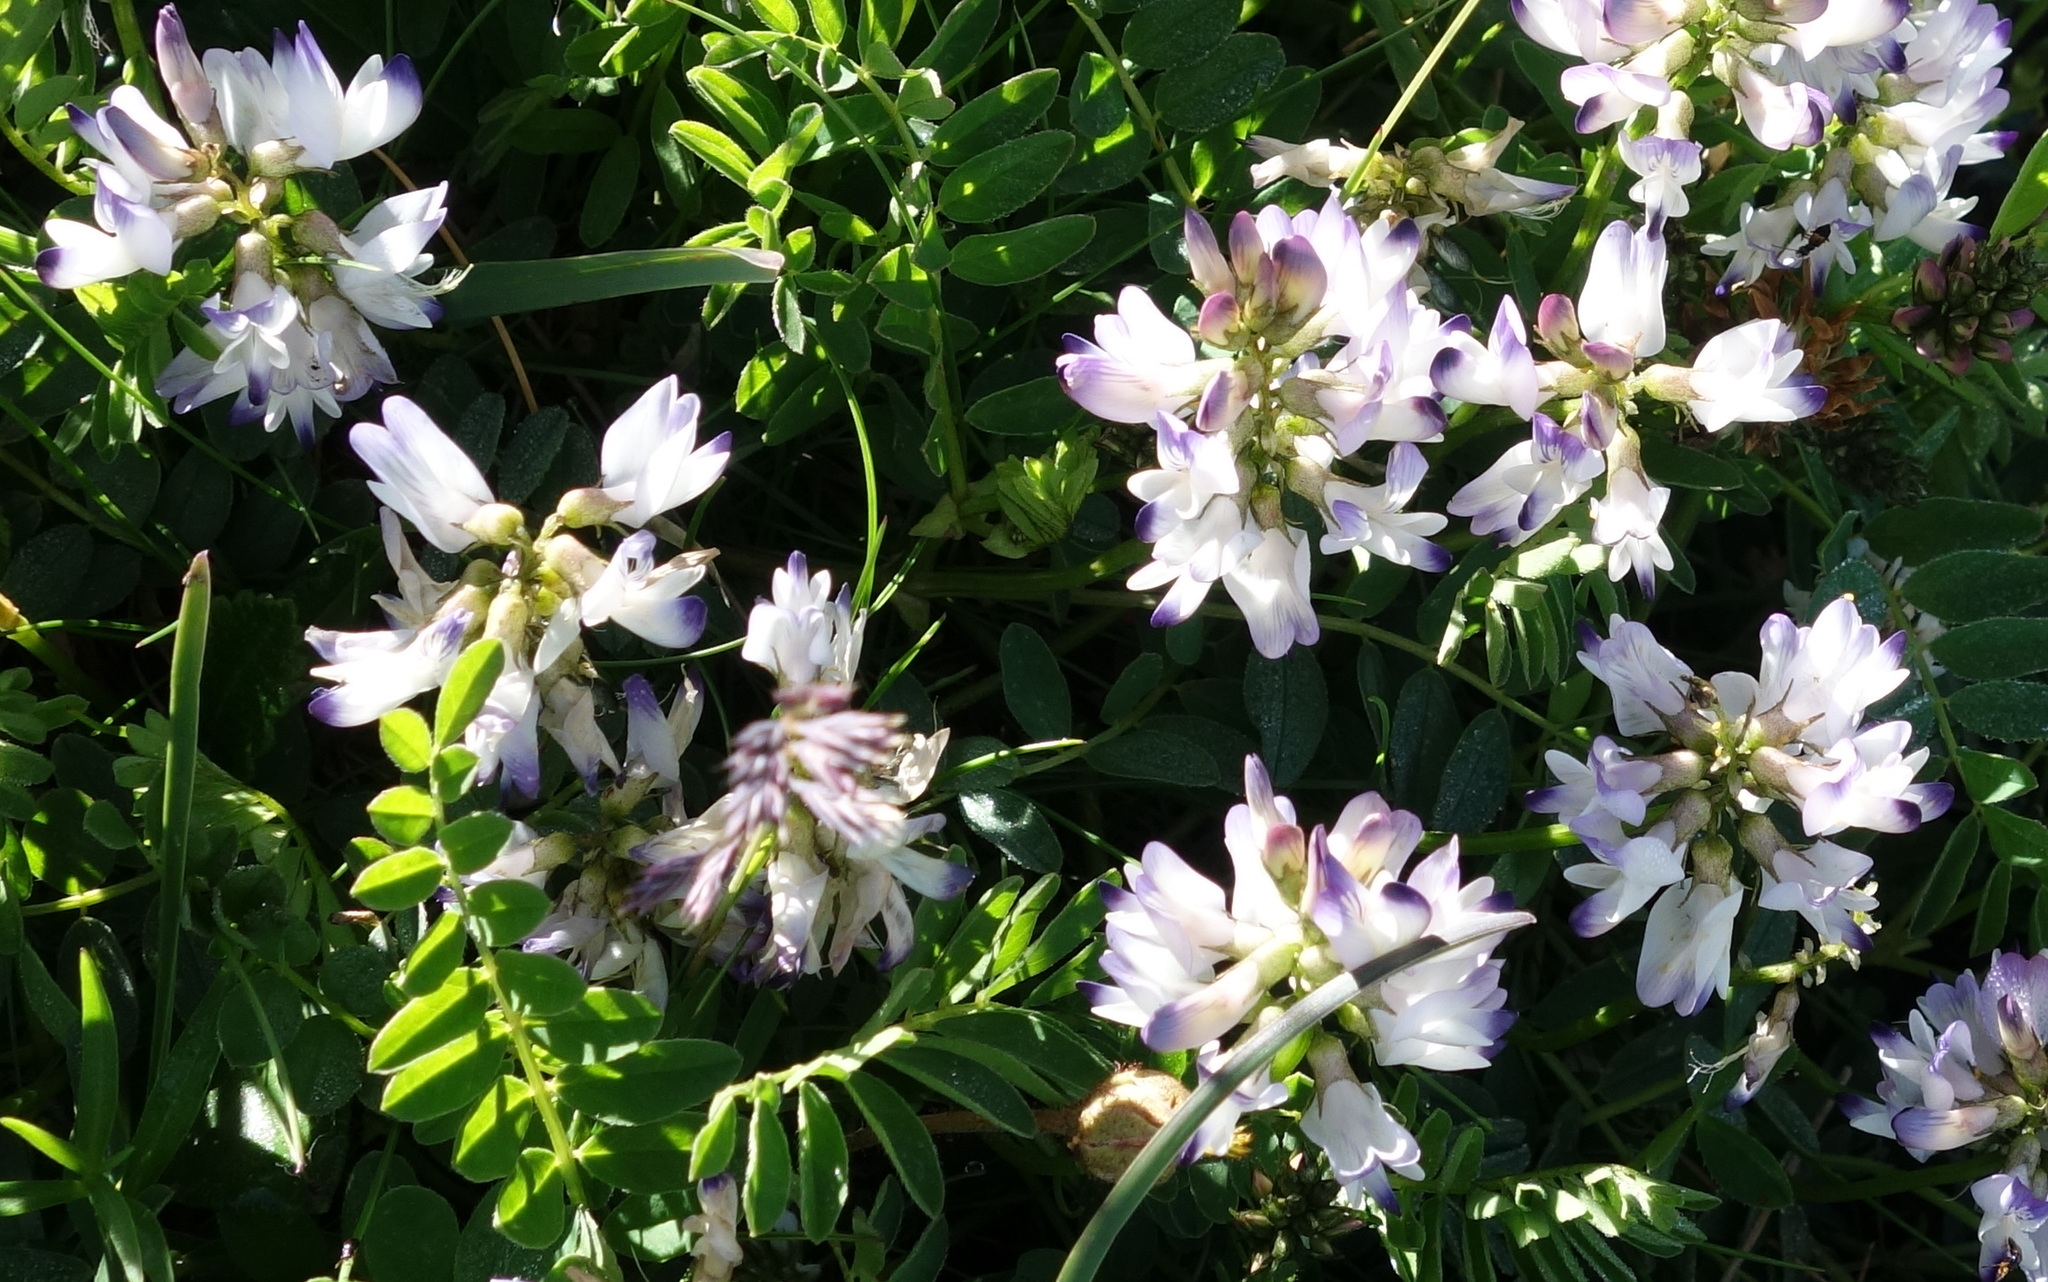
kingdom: Plantae
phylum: Tracheophyta
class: Magnoliopsida
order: Fabales
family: Fabaceae
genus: Astragalus
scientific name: Astragalus alpinus
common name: Alpine milk-vetch
